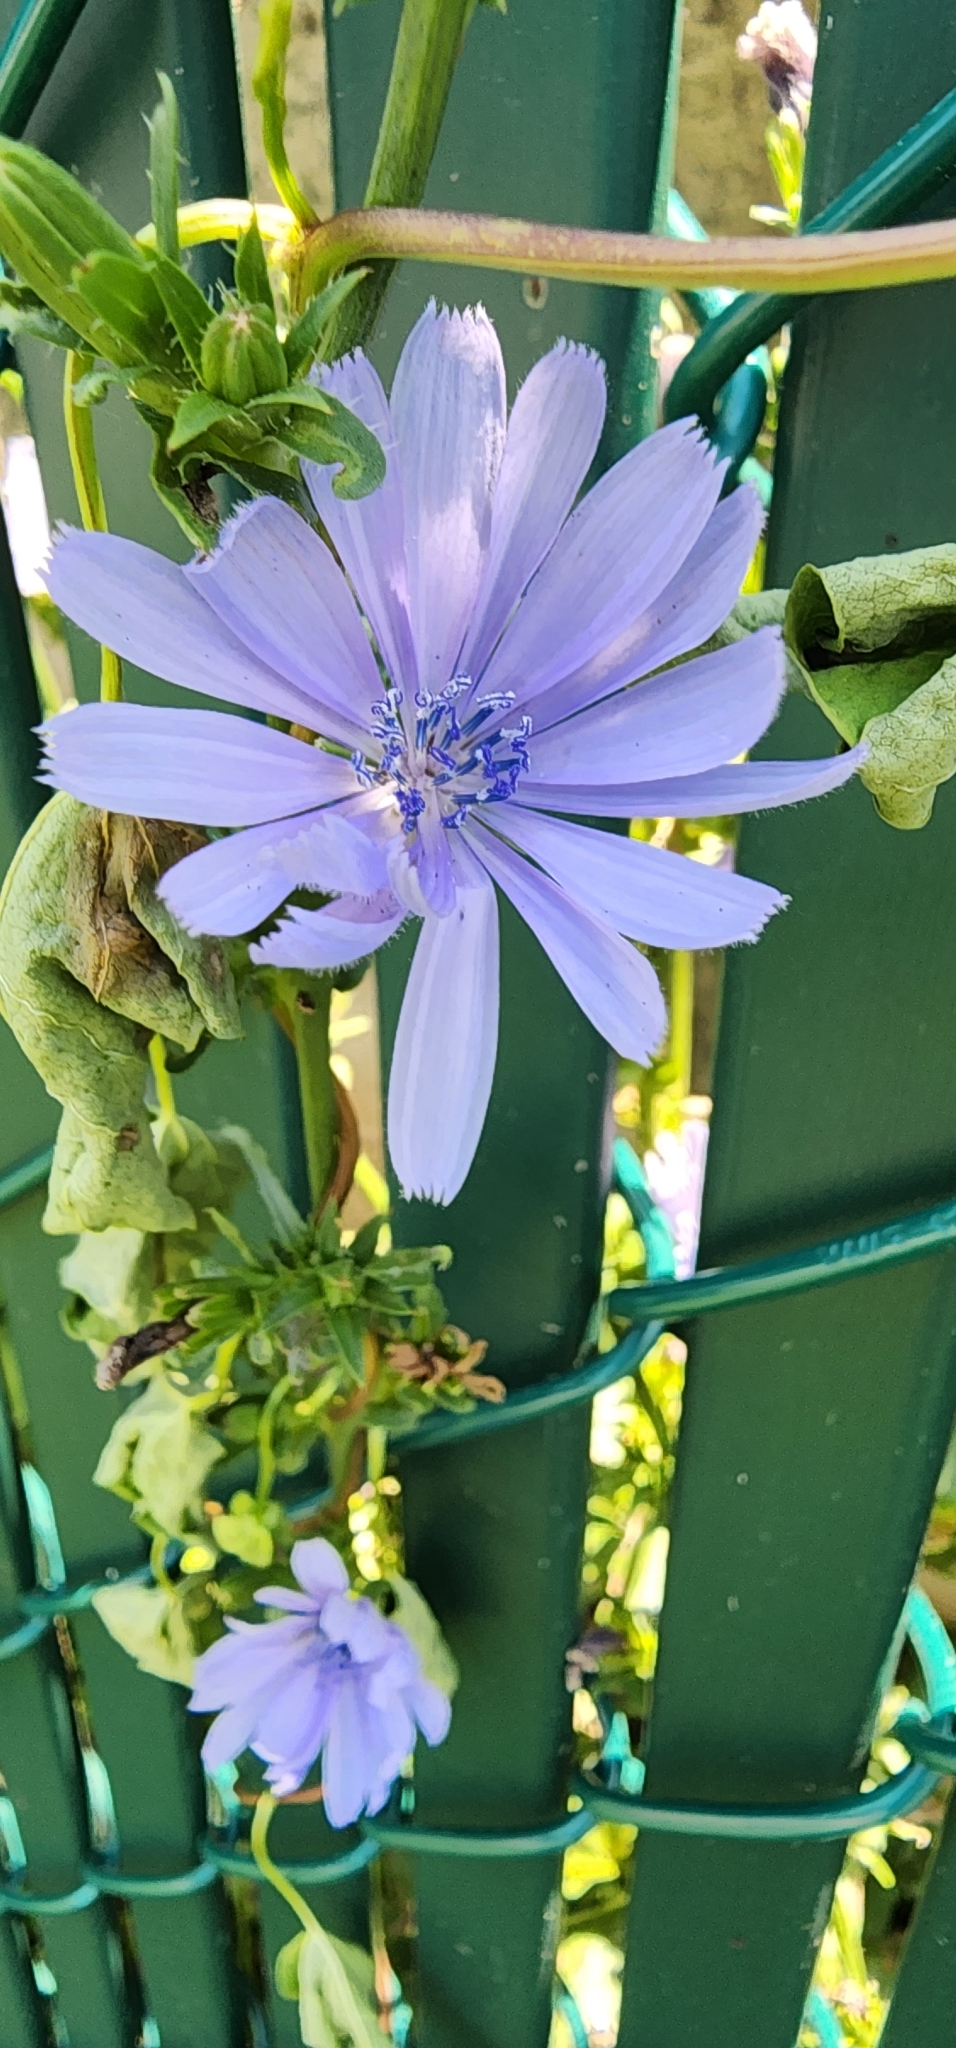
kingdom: Plantae
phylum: Tracheophyta
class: Magnoliopsida
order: Asterales
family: Asteraceae
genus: Cichorium
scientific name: Cichorium intybus
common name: Chicory
